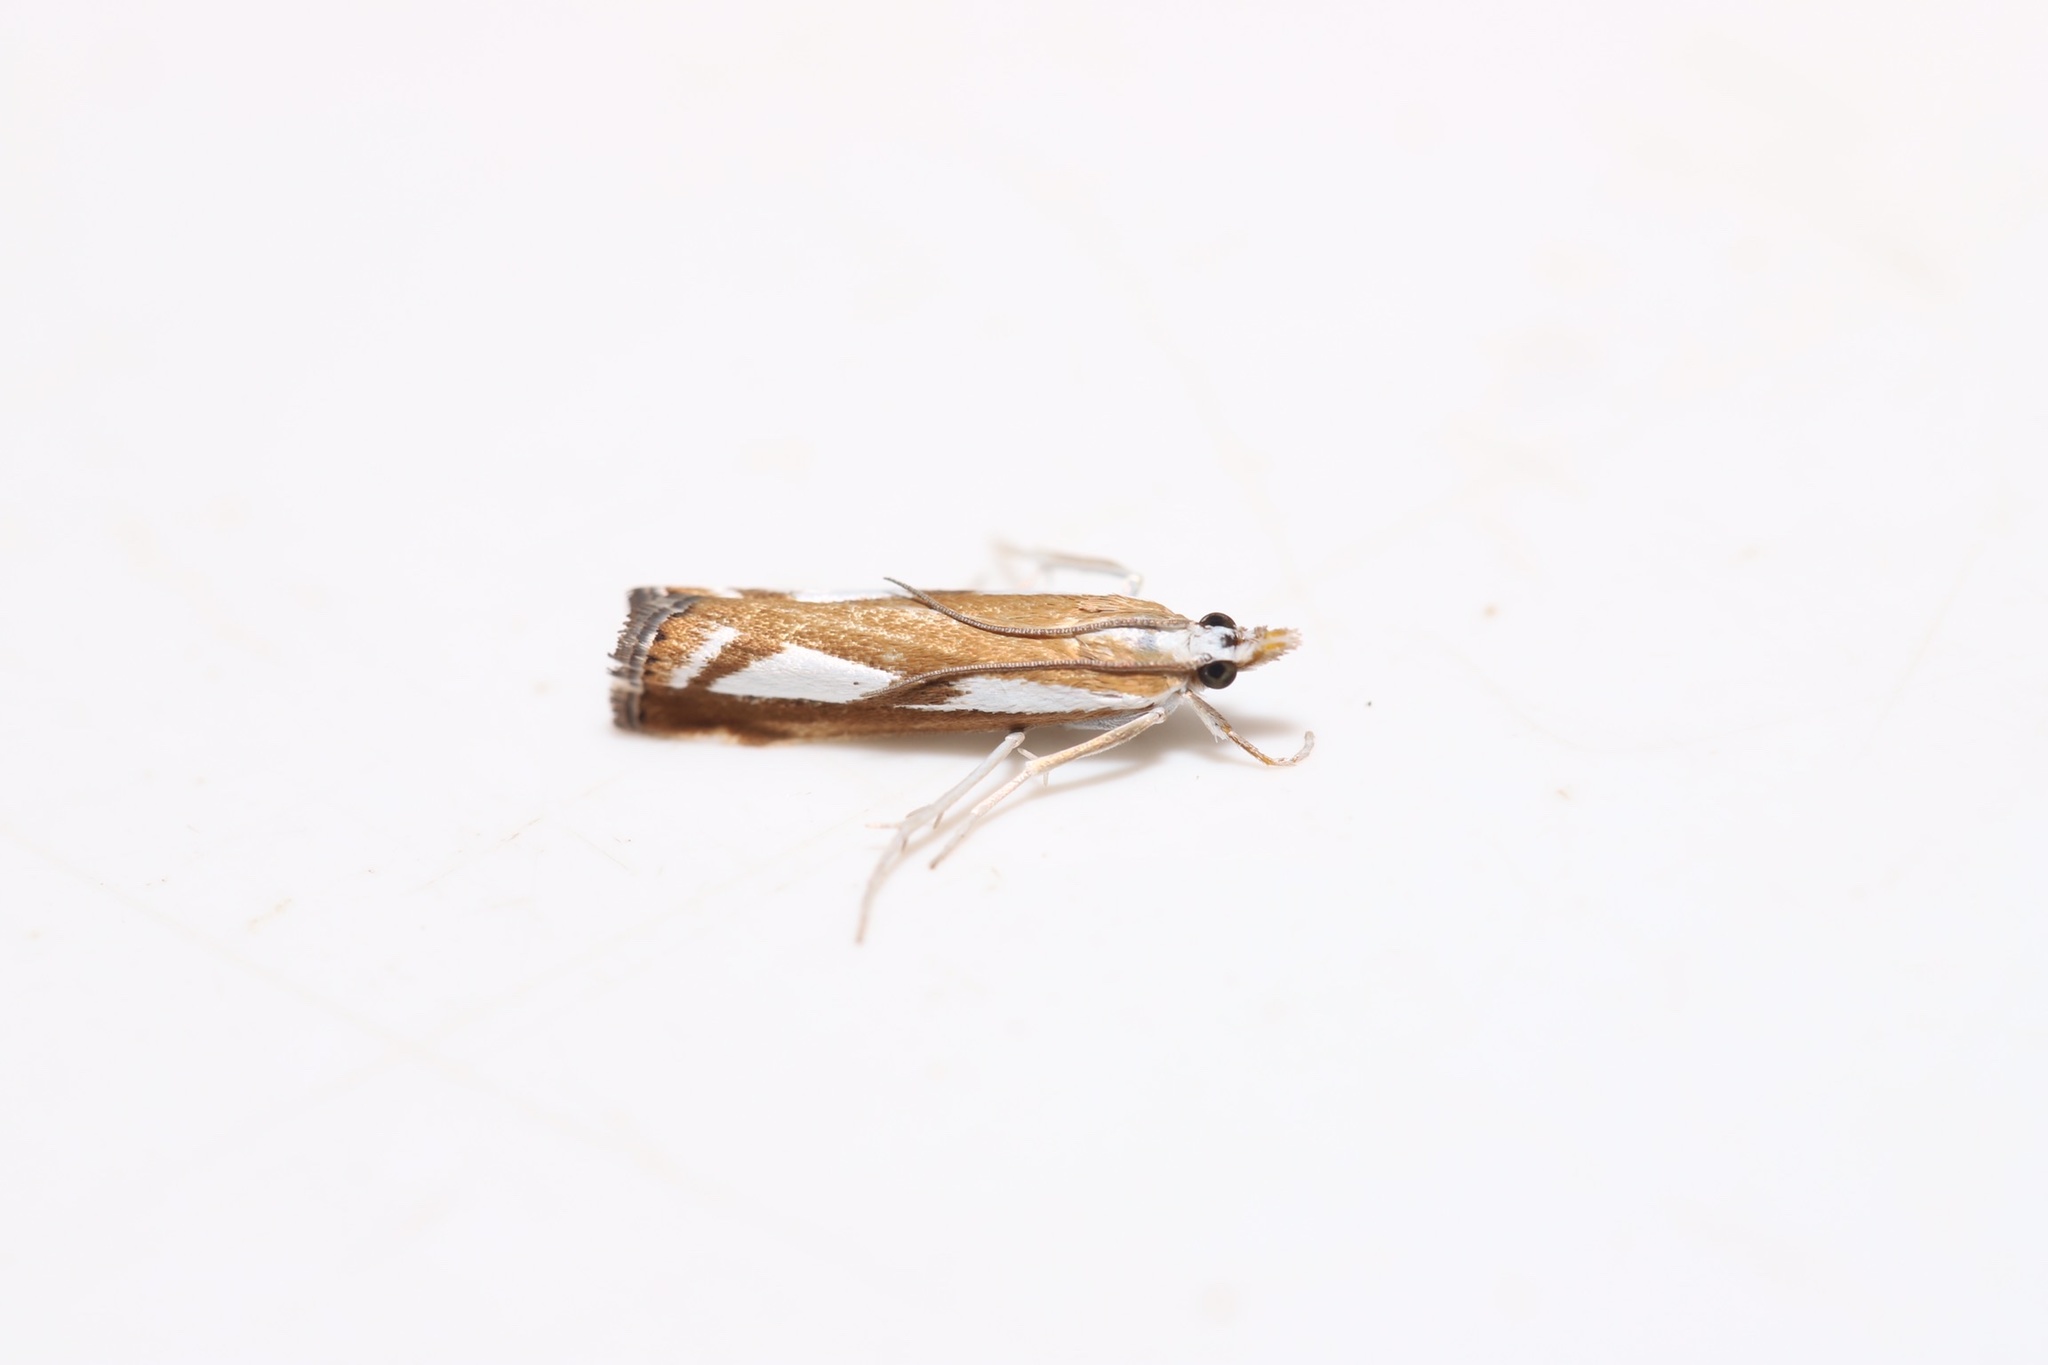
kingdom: Animalia
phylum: Arthropoda
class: Insecta
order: Lepidoptera
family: Crambidae
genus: Catoptria
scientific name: Catoptria latiradiellus
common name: Two-banded catoptria moth
